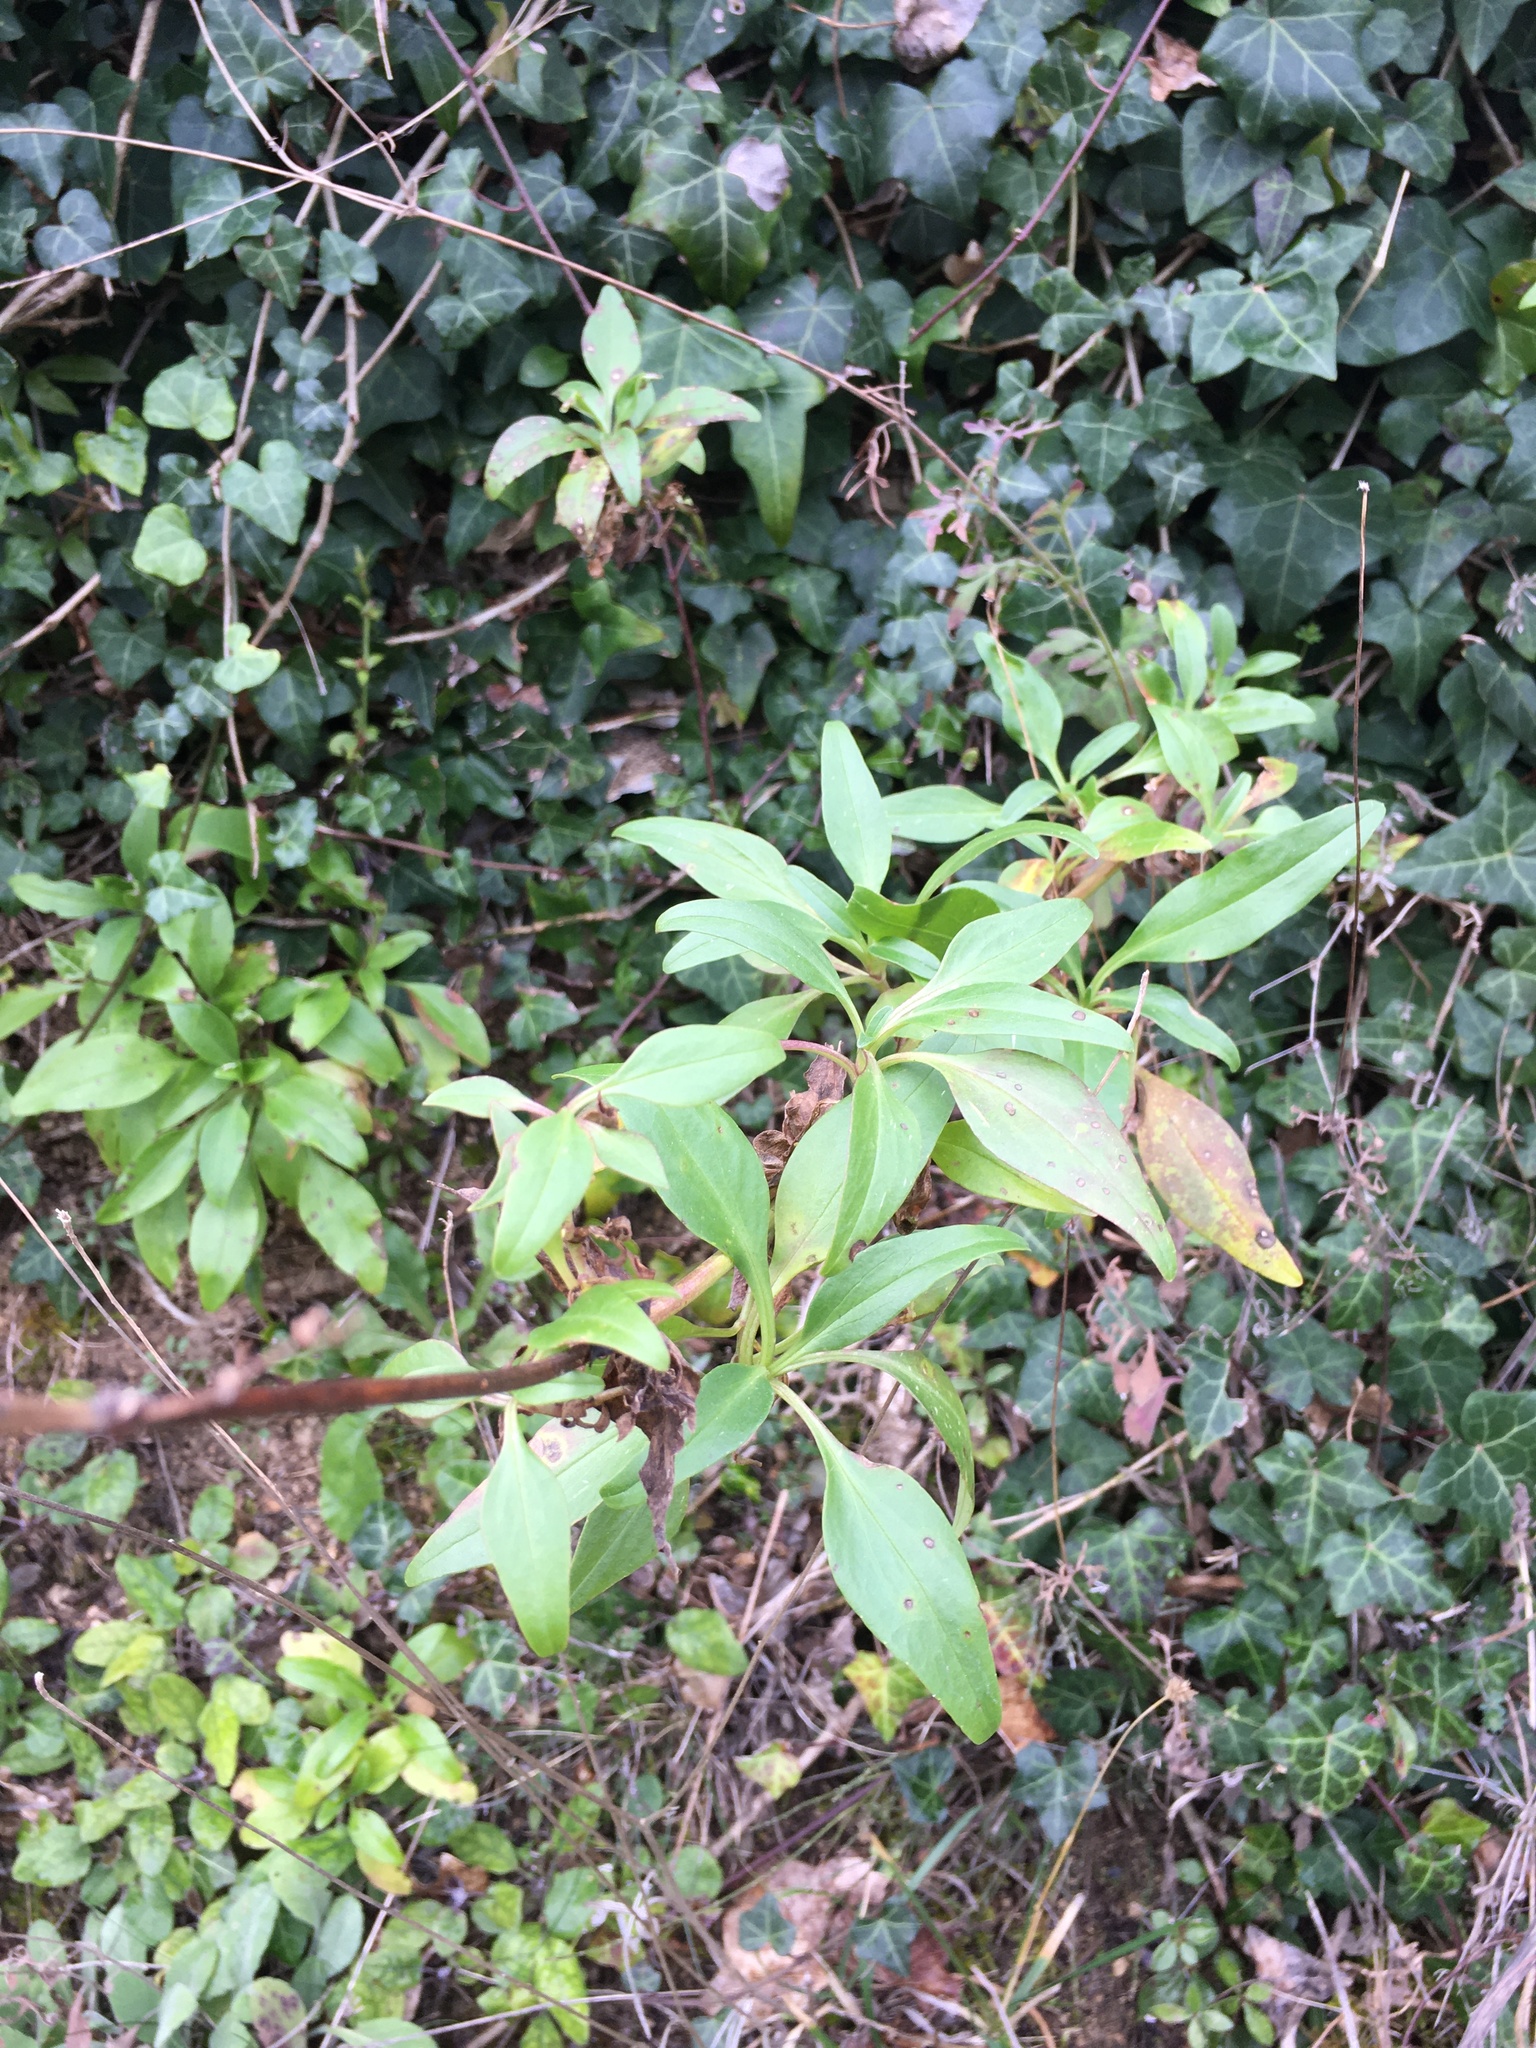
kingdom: Plantae
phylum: Tracheophyta
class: Magnoliopsida
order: Dipsacales
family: Caprifoliaceae
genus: Centranthus
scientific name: Centranthus ruber
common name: Red valerian
